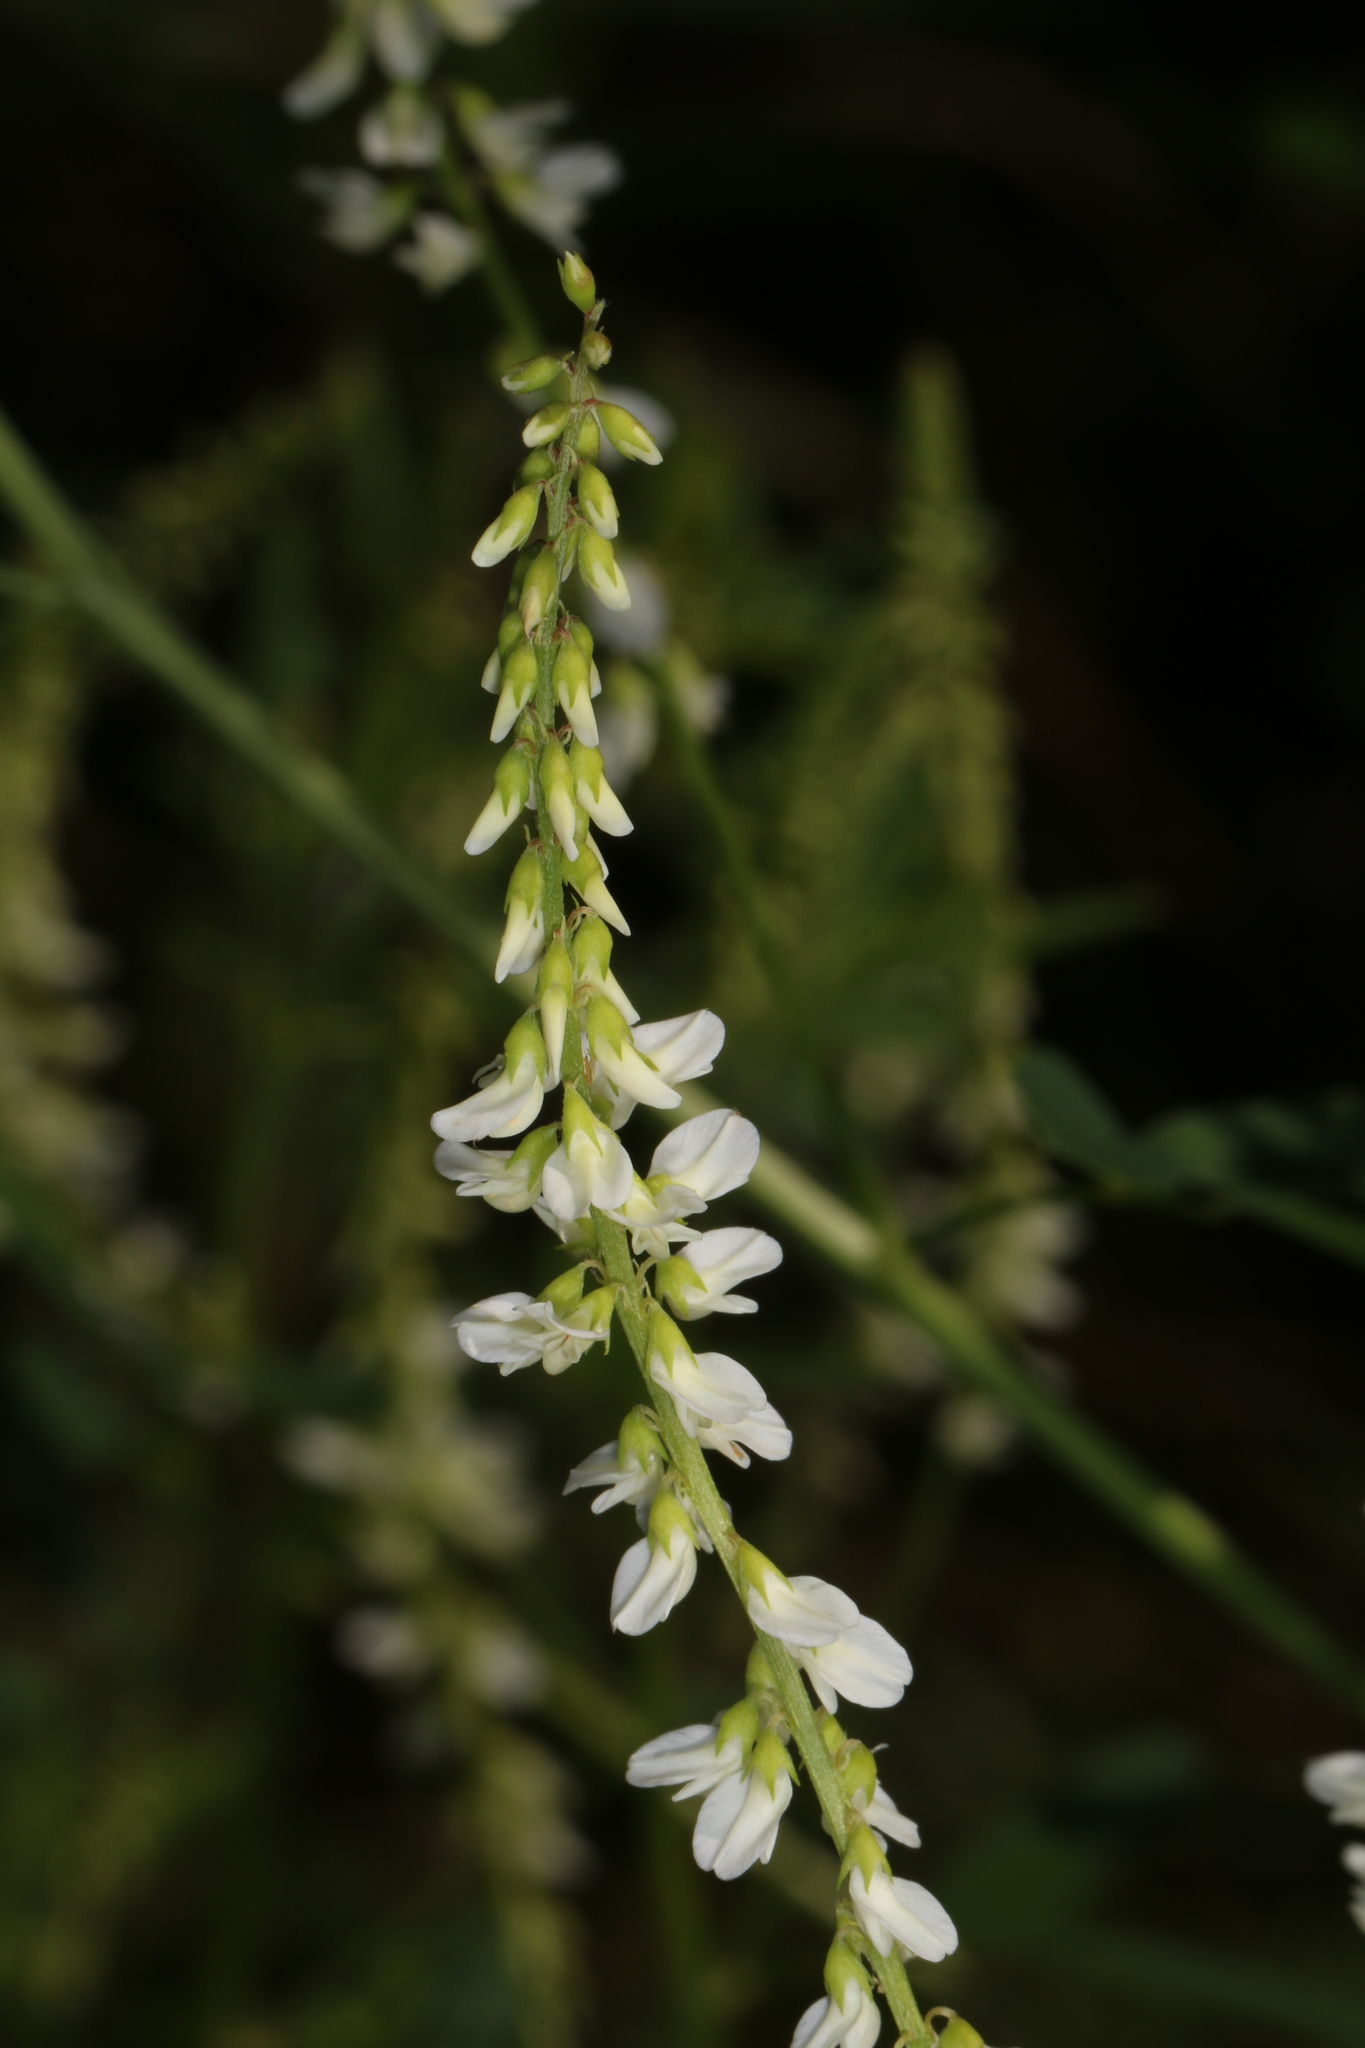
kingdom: Plantae
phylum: Tracheophyta
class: Magnoliopsida
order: Fabales
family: Fabaceae
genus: Melilotus
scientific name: Melilotus albus
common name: White melilot
